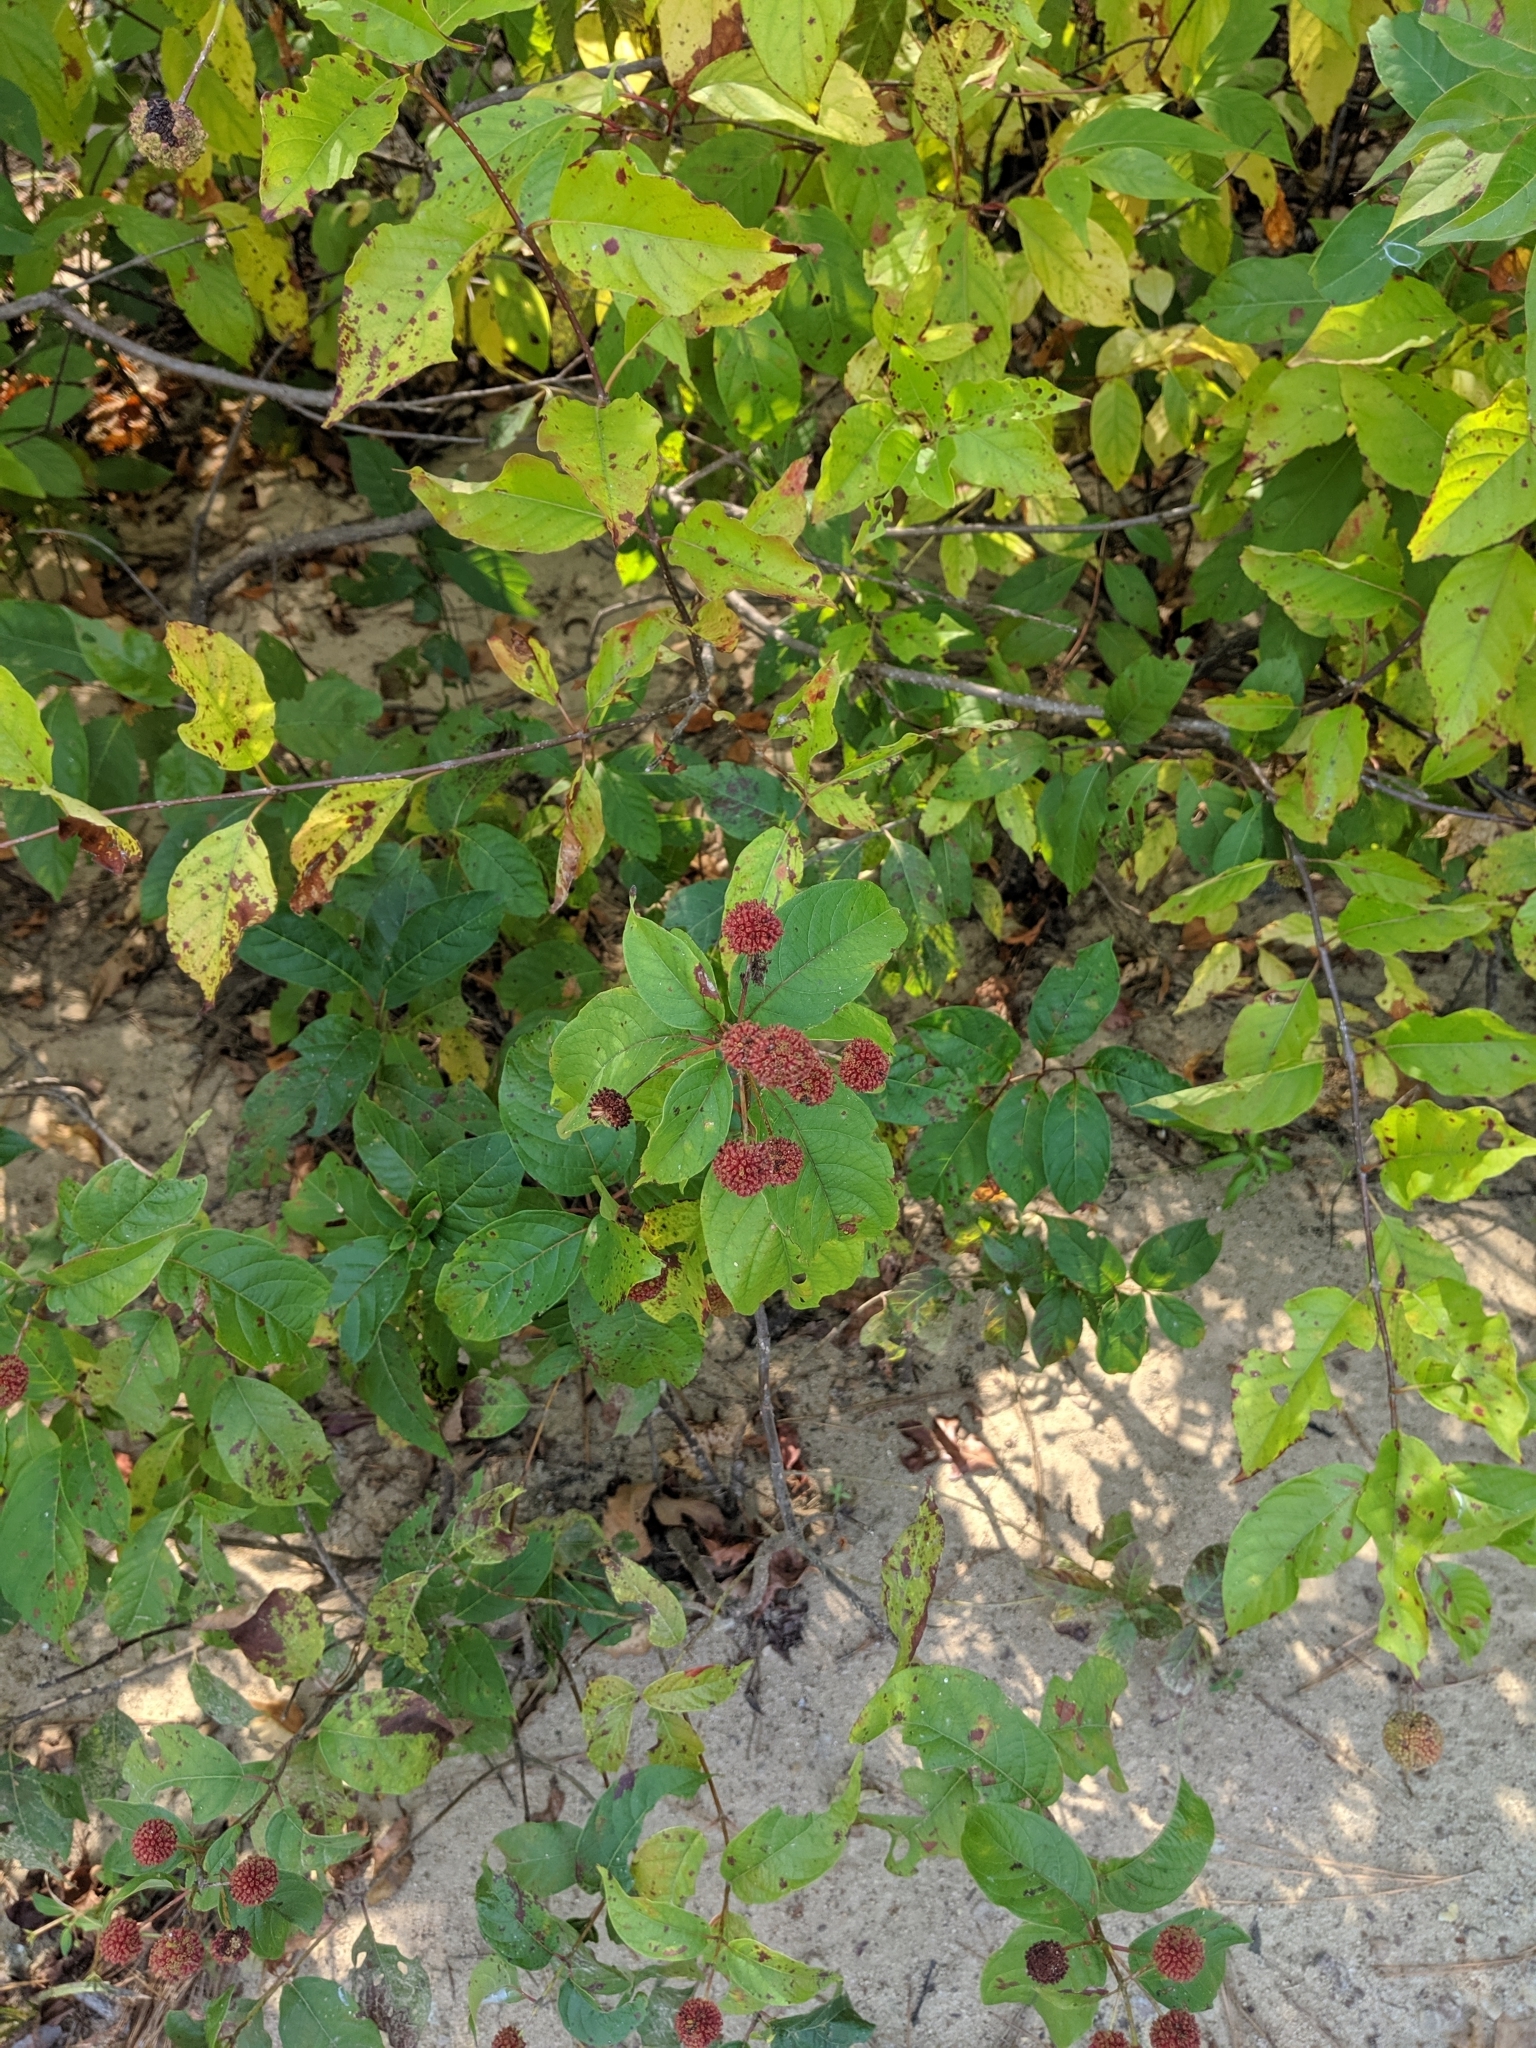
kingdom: Plantae
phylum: Tracheophyta
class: Magnoliopsida
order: Gentianales
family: Rubiaceae
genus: Cephalanthus
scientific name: Cephalanthus occidentalis
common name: Button-willow
